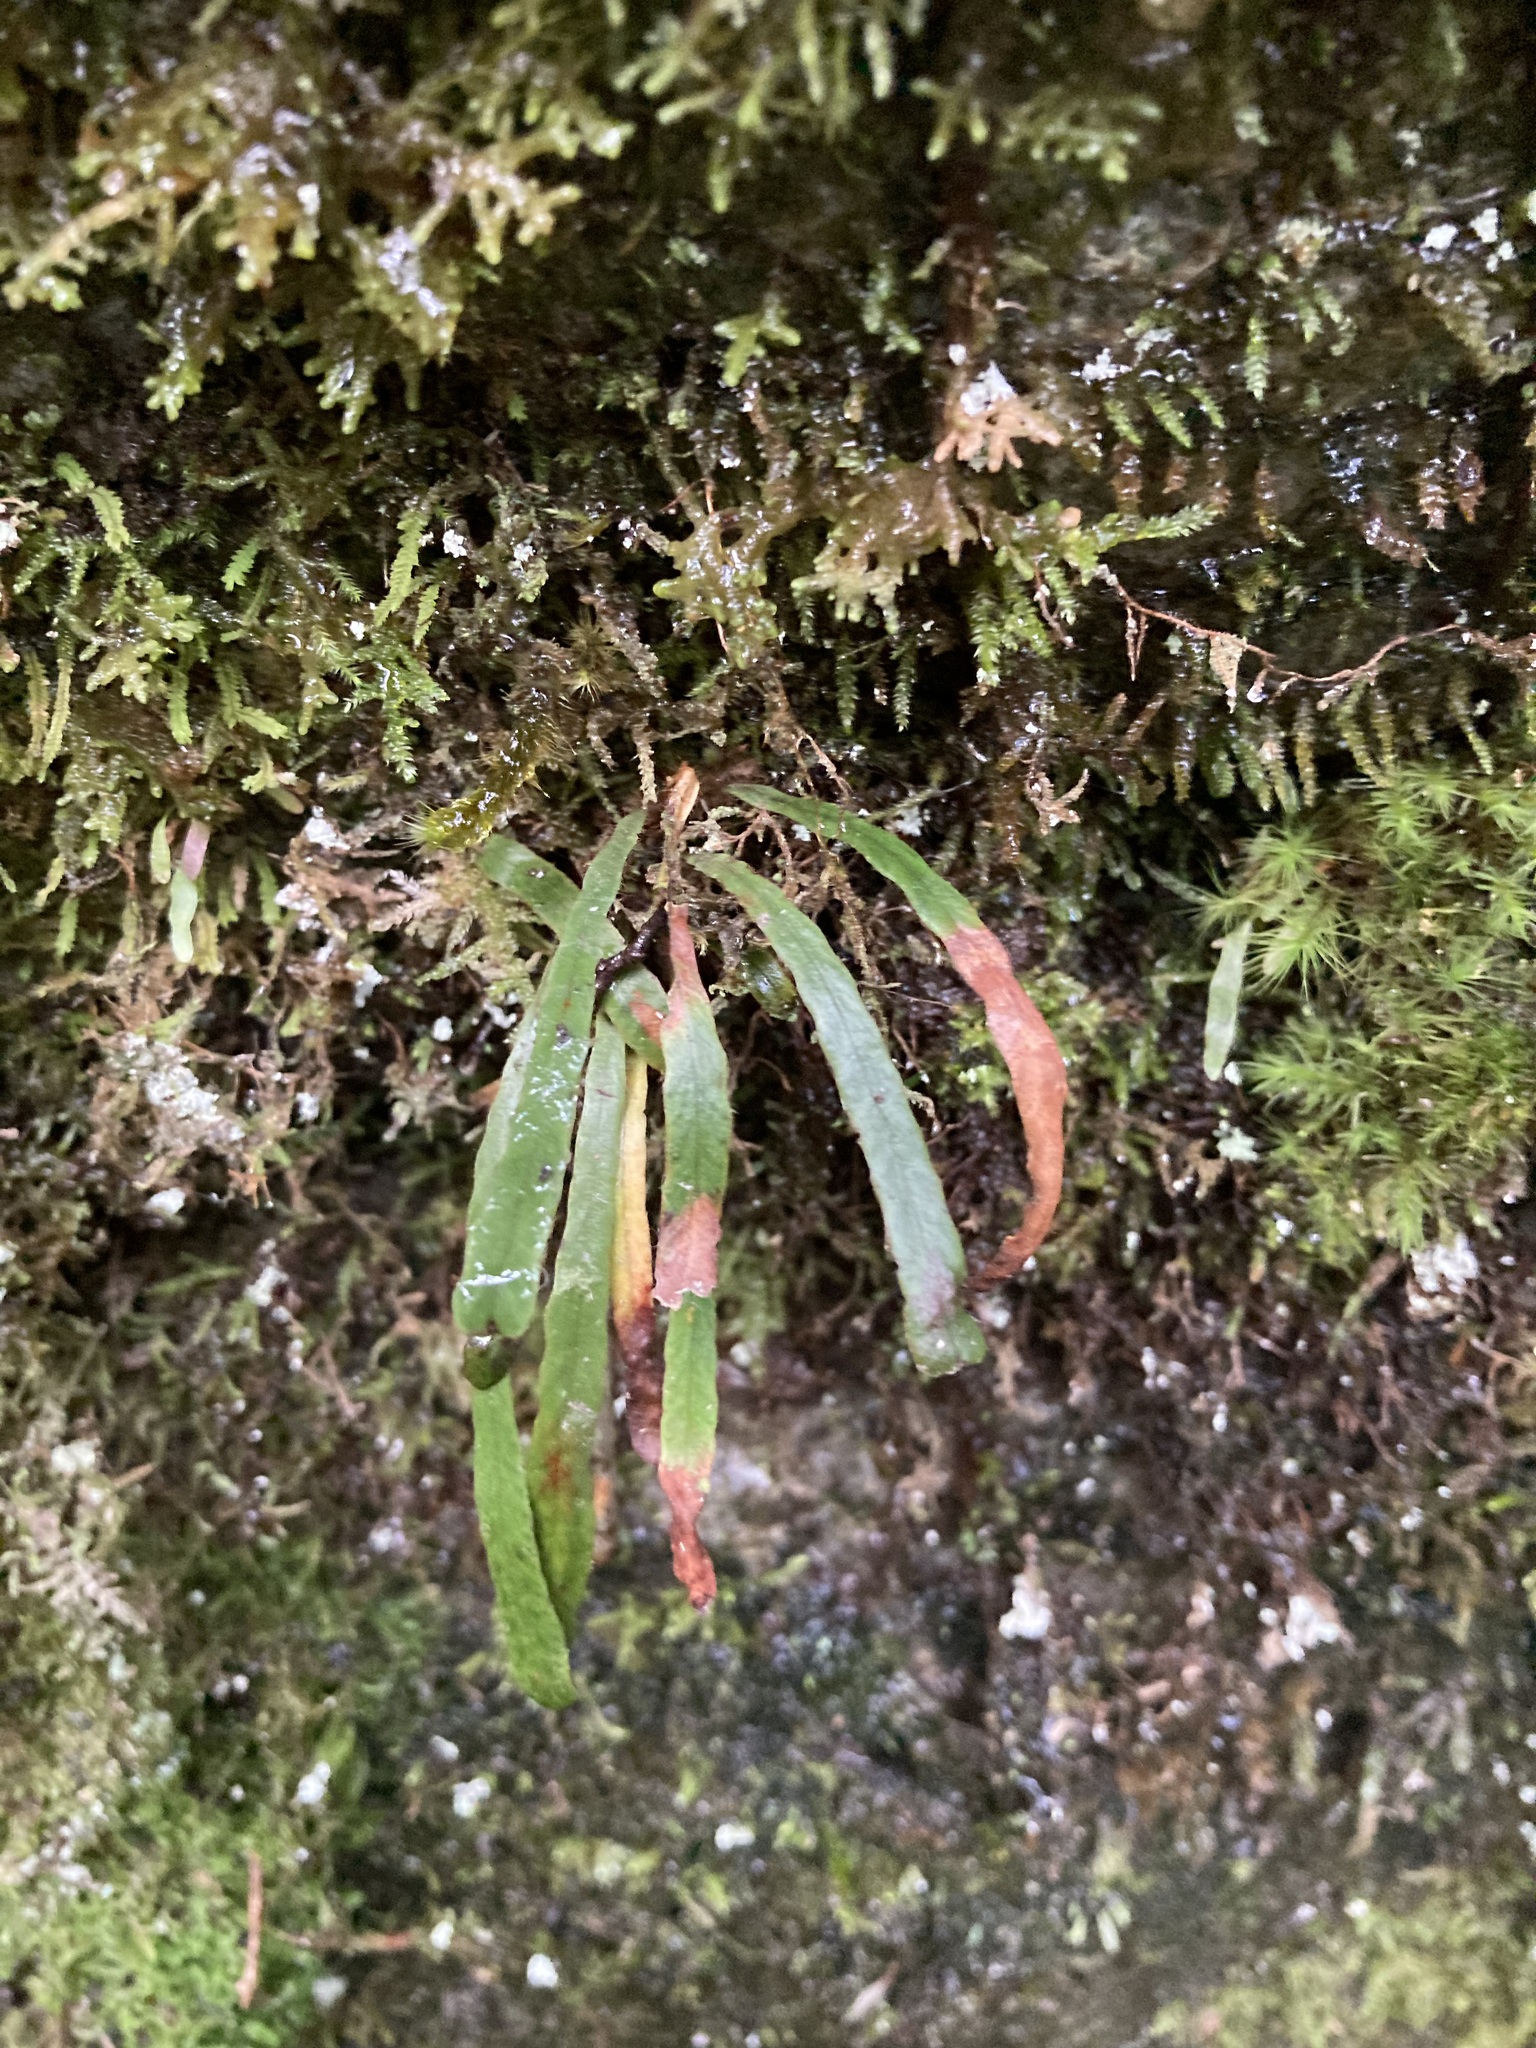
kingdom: Plantae
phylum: Tracheophyta
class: Polypodiopsida
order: Polypodiales
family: Polypodiaceae
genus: Notogrammitis
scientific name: Notogrammitis billardierei
